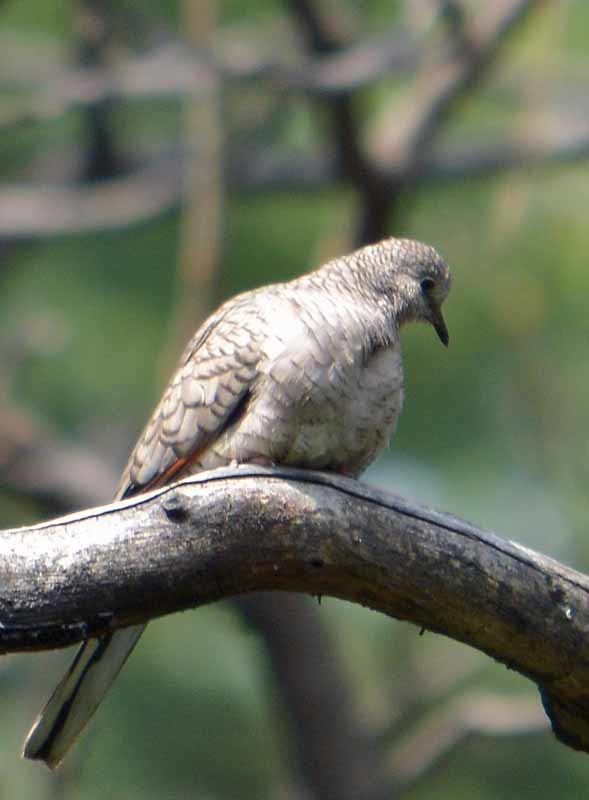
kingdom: Animalia
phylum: Chordata
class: Aves
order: Columbiformes
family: Columbidae
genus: Columbina
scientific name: Columbina inca
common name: Inca dove
